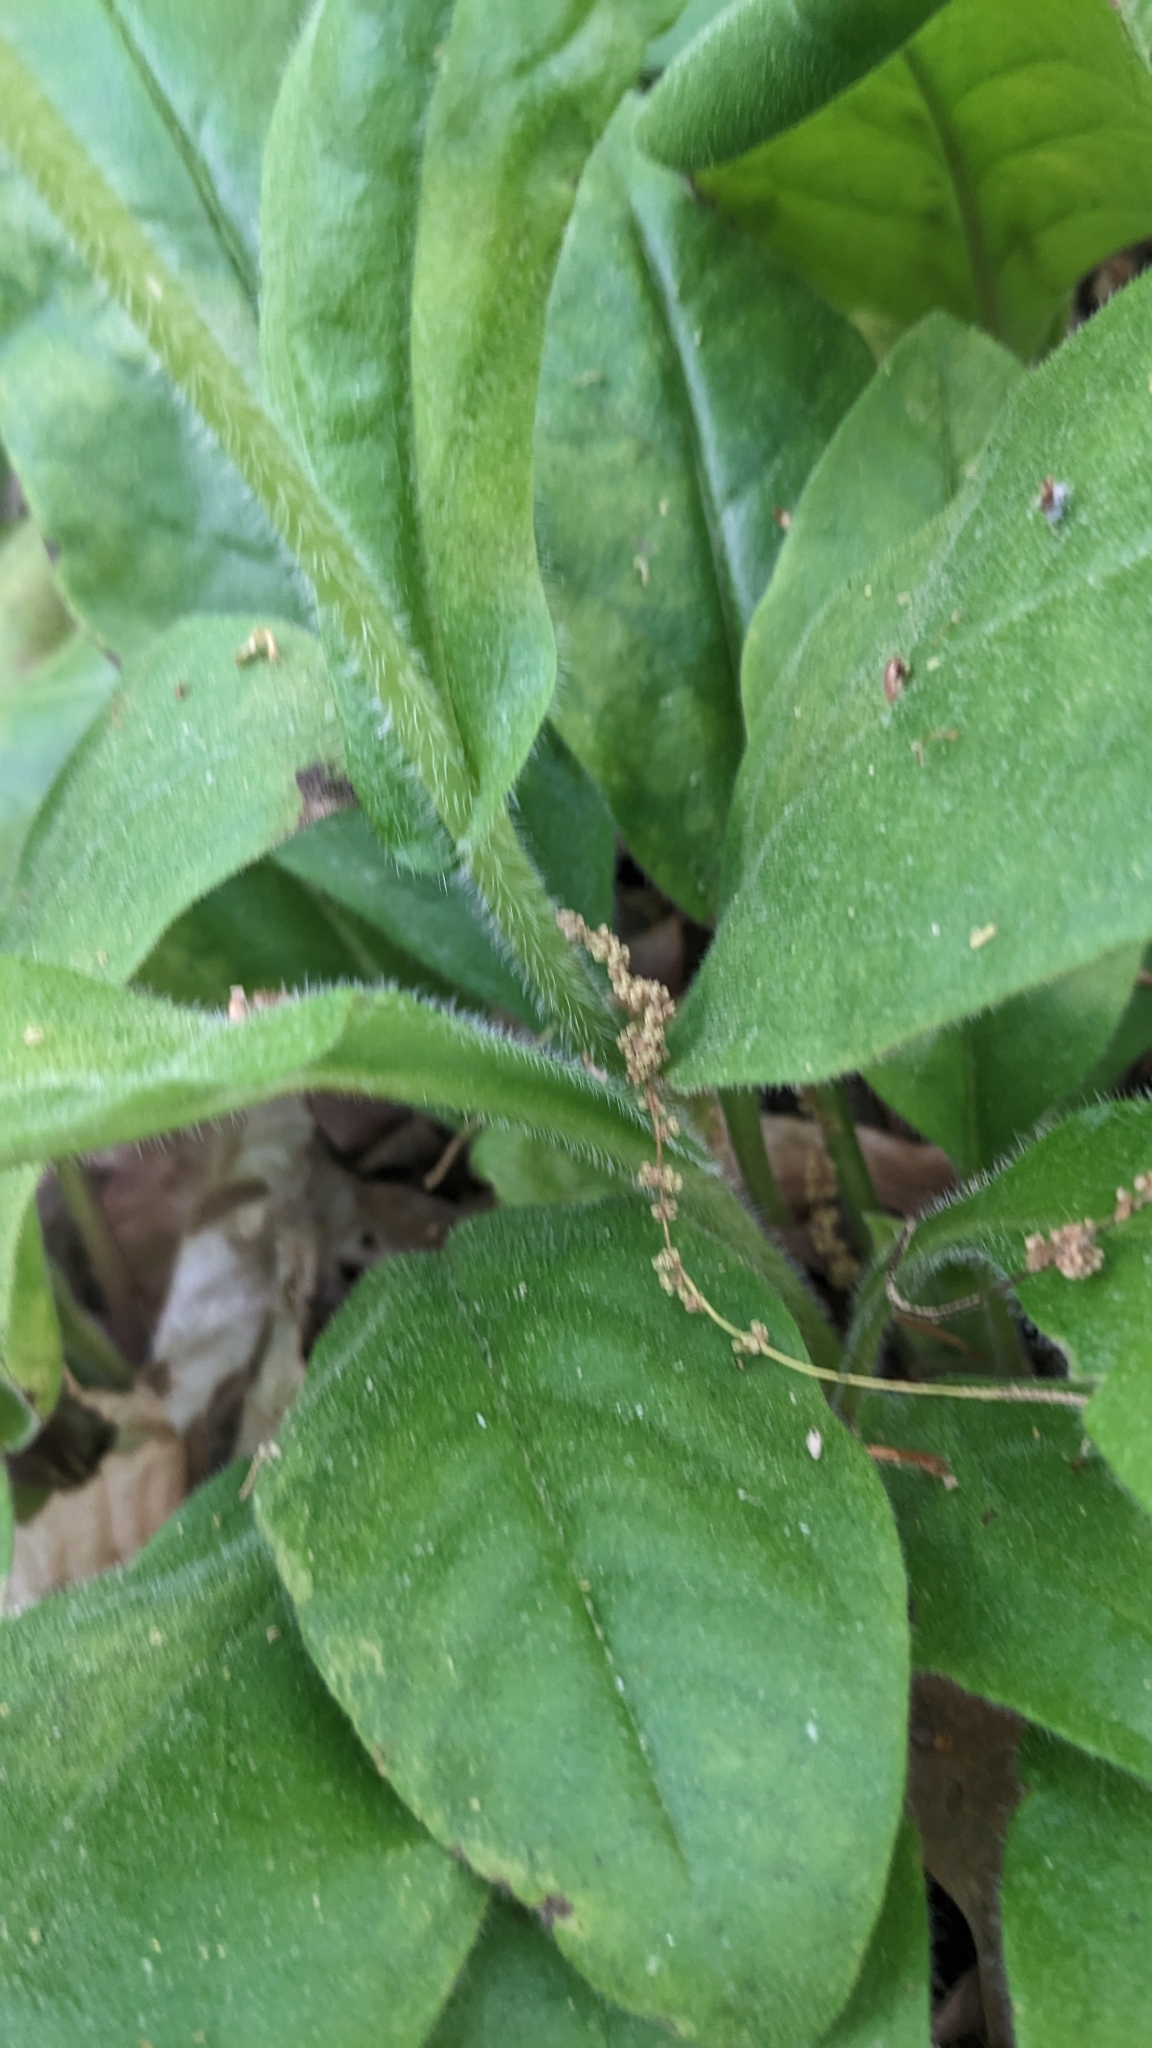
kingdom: Plantae
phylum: Tracheophyta
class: Magnoliopsida
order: Boraginales
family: Boraginaceae
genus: Andersonglossum
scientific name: Andersonglossum virginianum
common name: Wild comfrey
